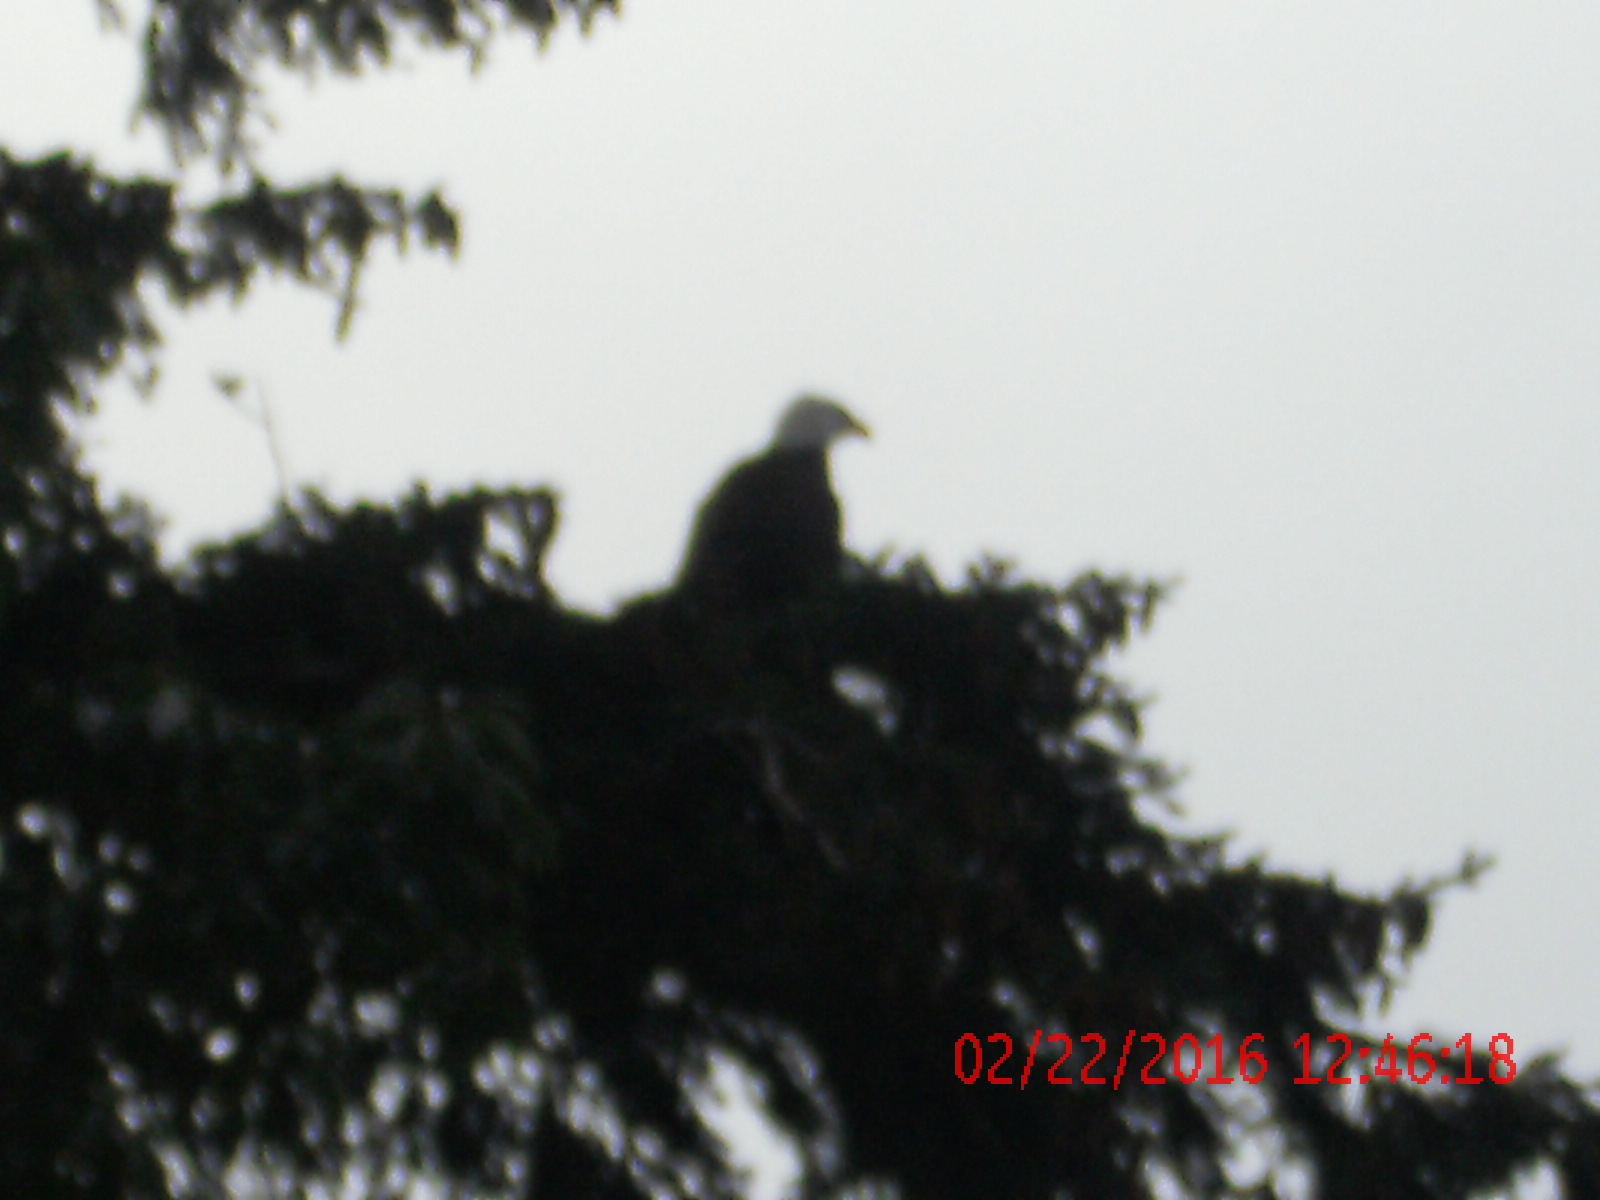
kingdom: Animalia
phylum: Chordata
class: Aves
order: Accipitriformes
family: Accipitridae
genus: Haliaeetus
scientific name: Haliaeetus leucocephalus
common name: Bald eagle
